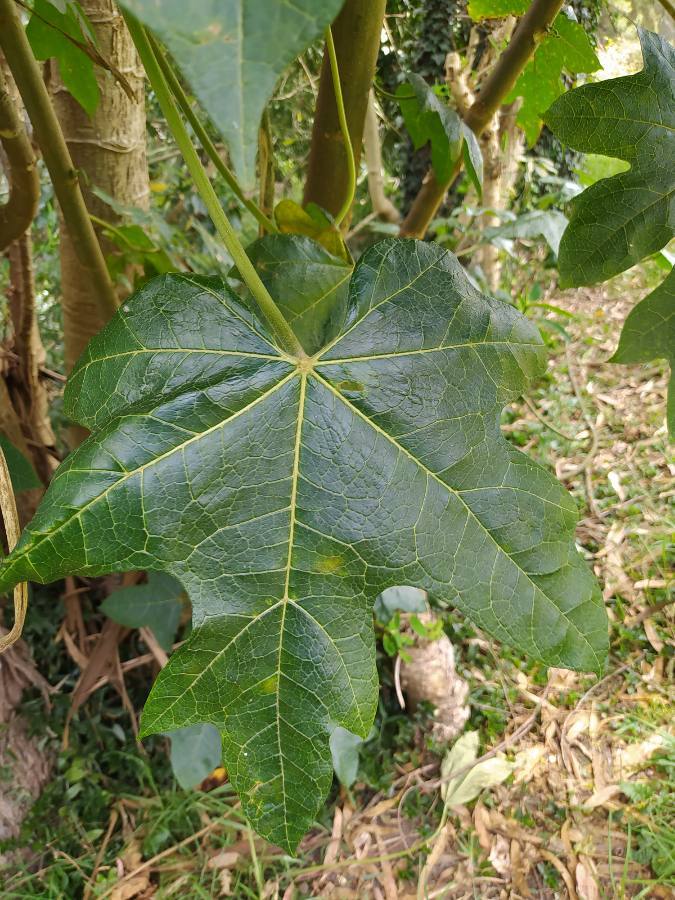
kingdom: Plantae
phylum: Tracheophyta
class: Magnoliopsida
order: Brassicales
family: Caricaceae
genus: Vasconcellea
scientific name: Vasconcellea pubescens
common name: Mountain papaya
